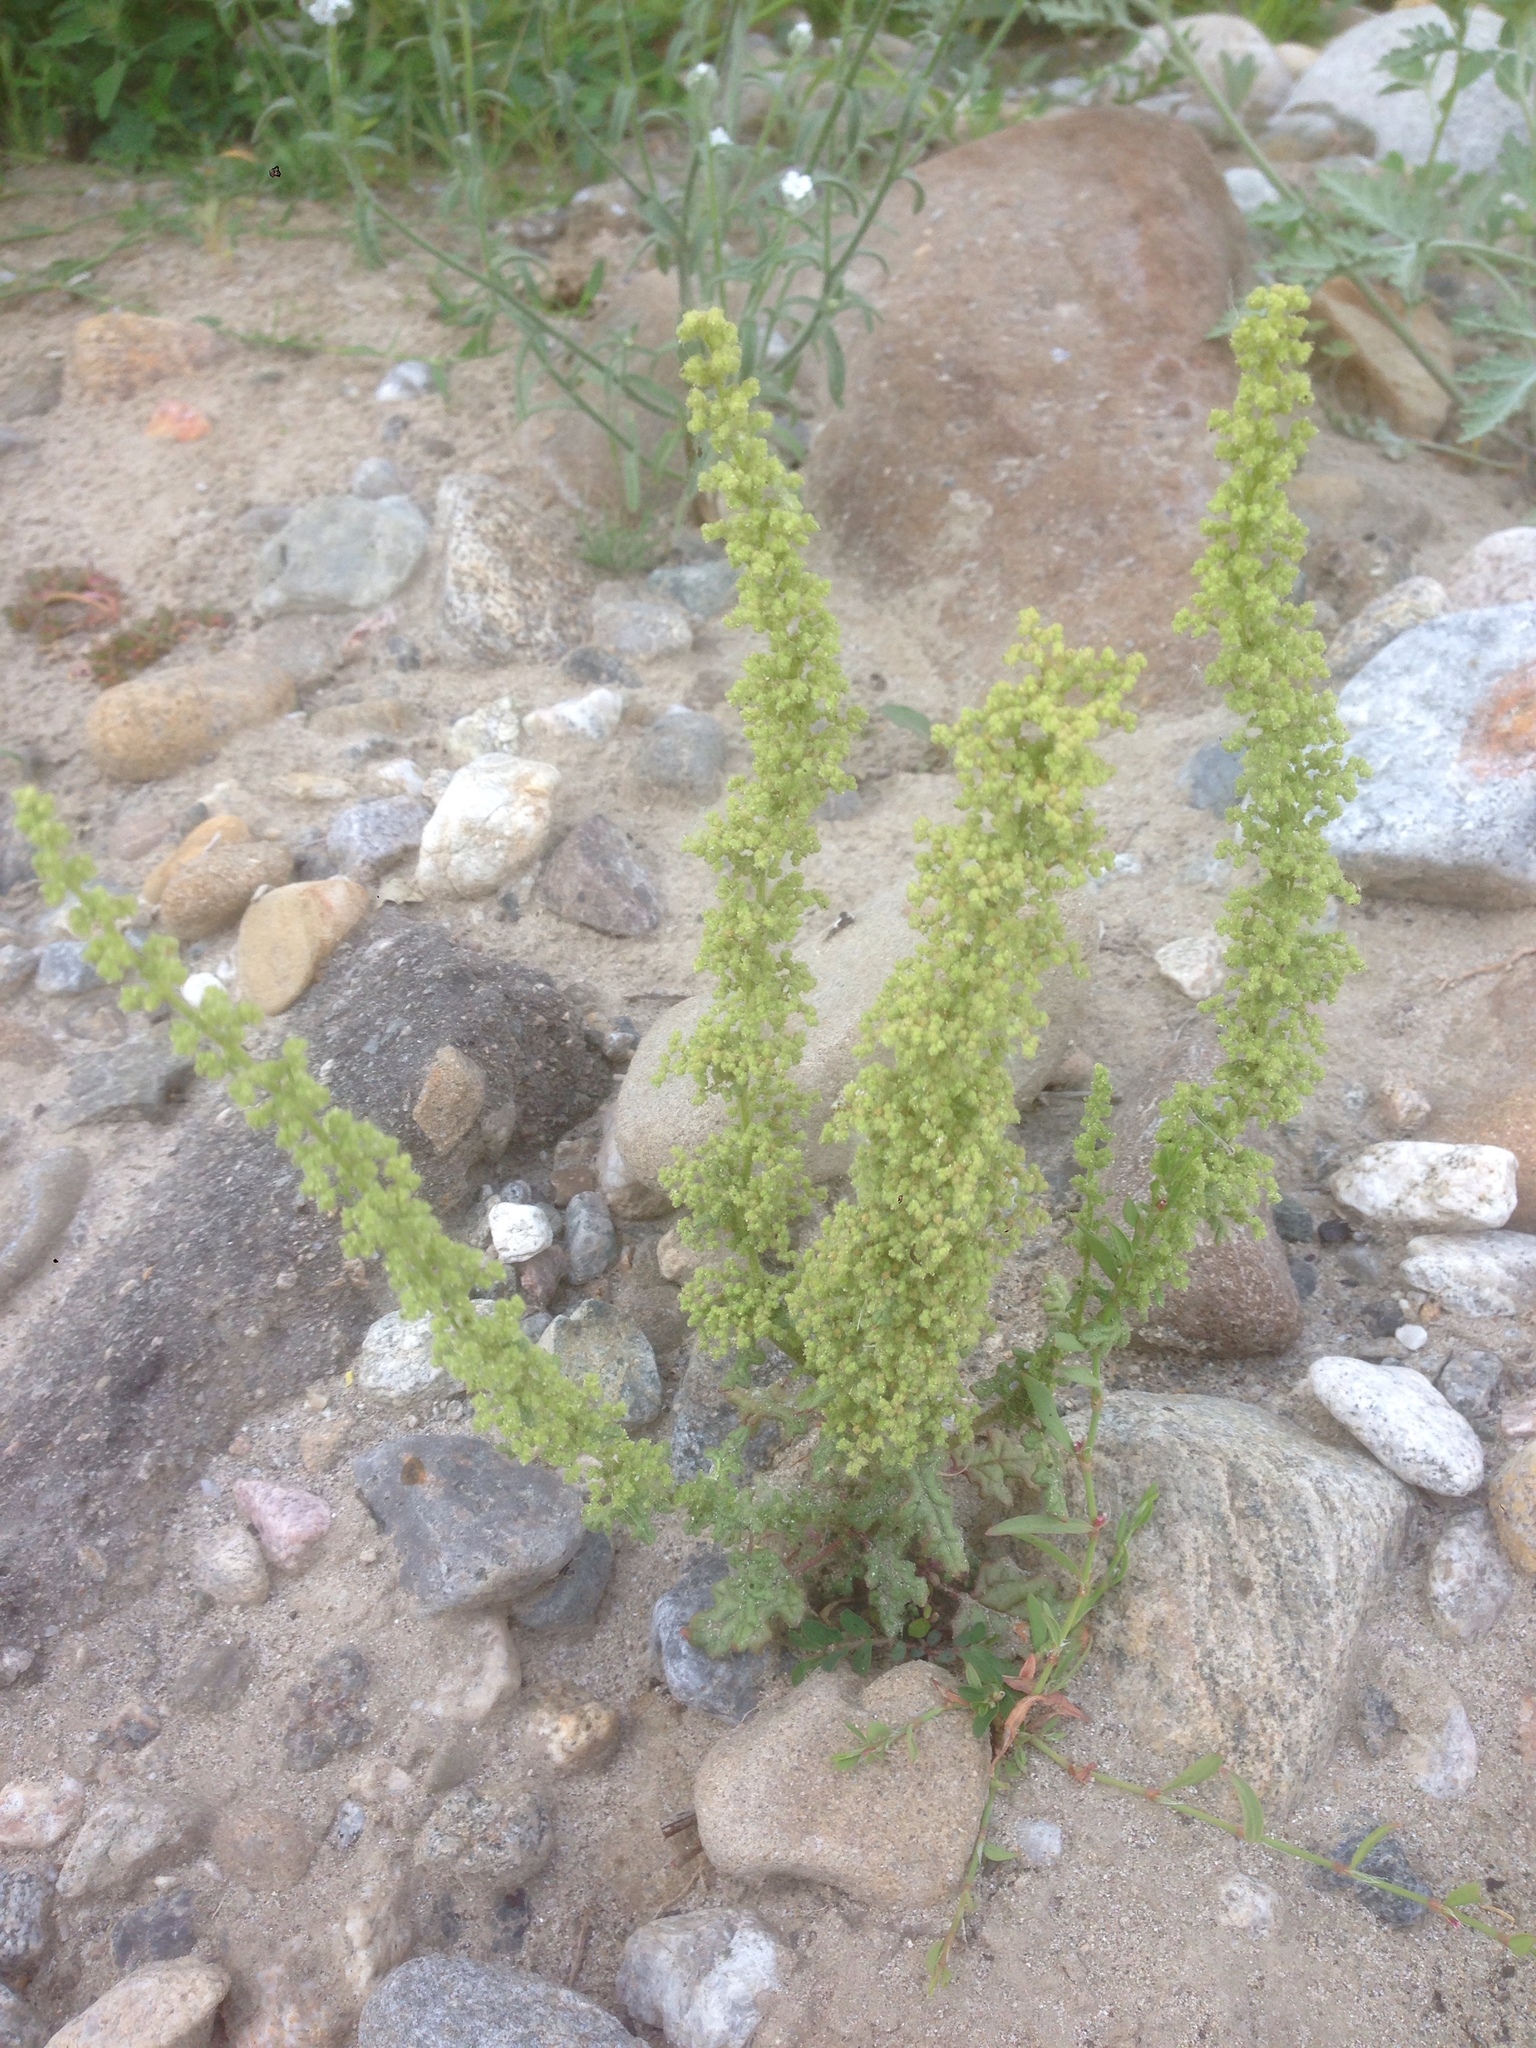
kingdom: Plantae
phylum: Tracheophyta
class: Magnoliopsida
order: Caryophyllales
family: Amaranthaceae
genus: Dysphania
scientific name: Dysphania botrys
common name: Feather-geranium
